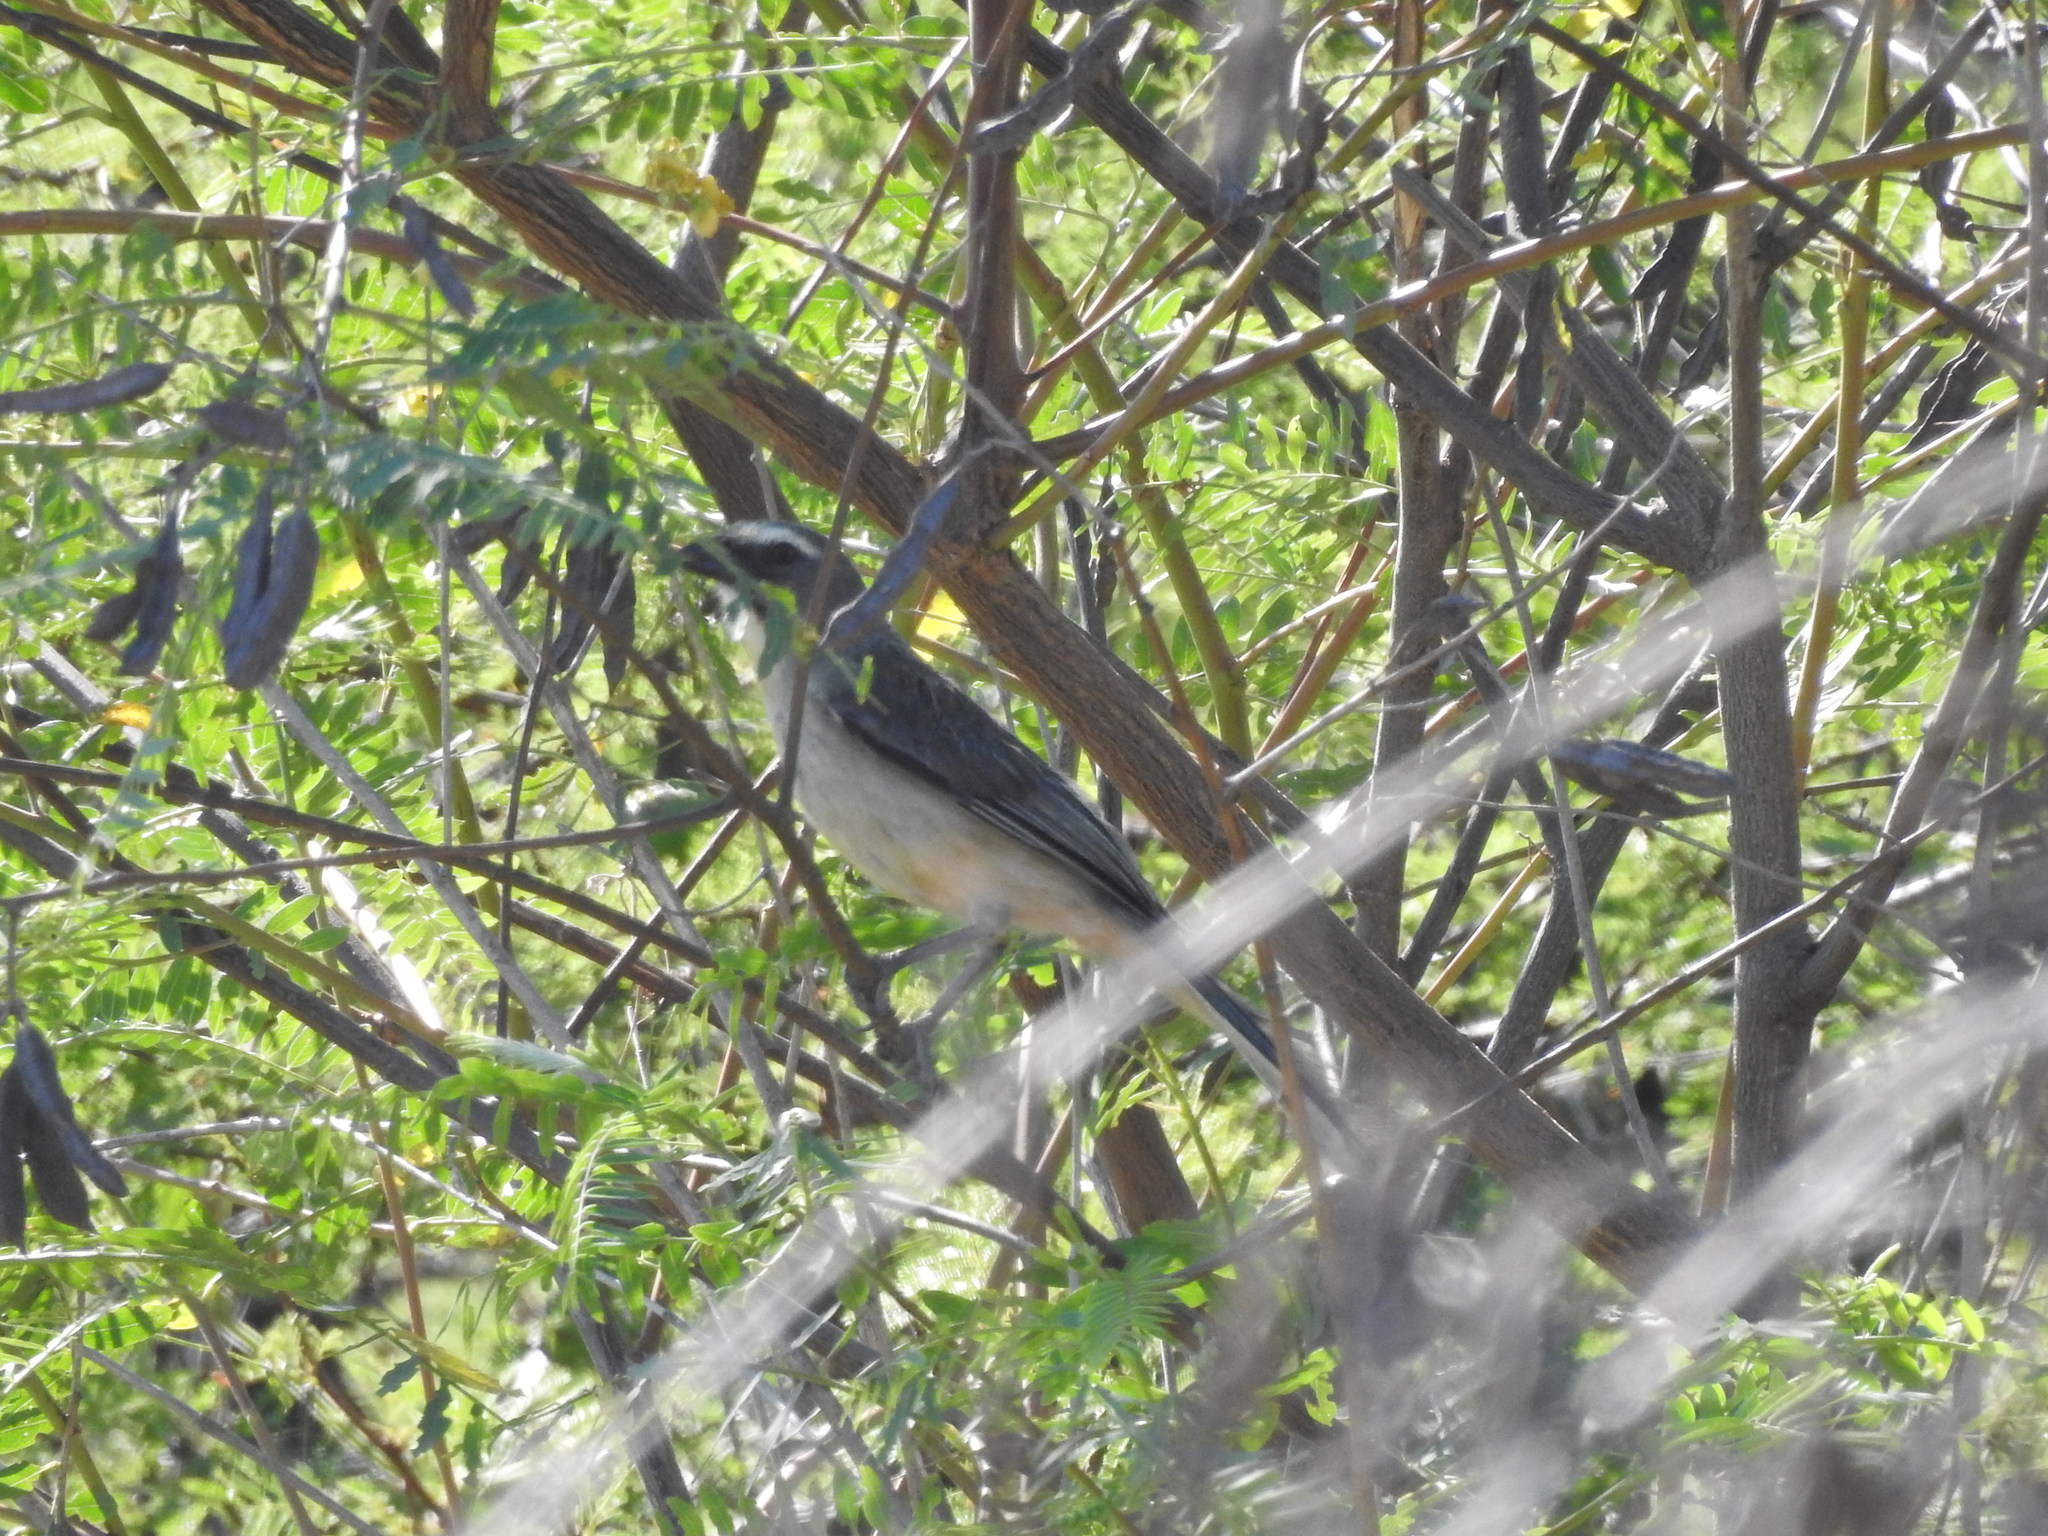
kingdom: Animalia
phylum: Chordata
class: Aves
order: Passeriformes
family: Thraupidae
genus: Saltator
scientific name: Saltator coerulescens
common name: Grayish saltator
